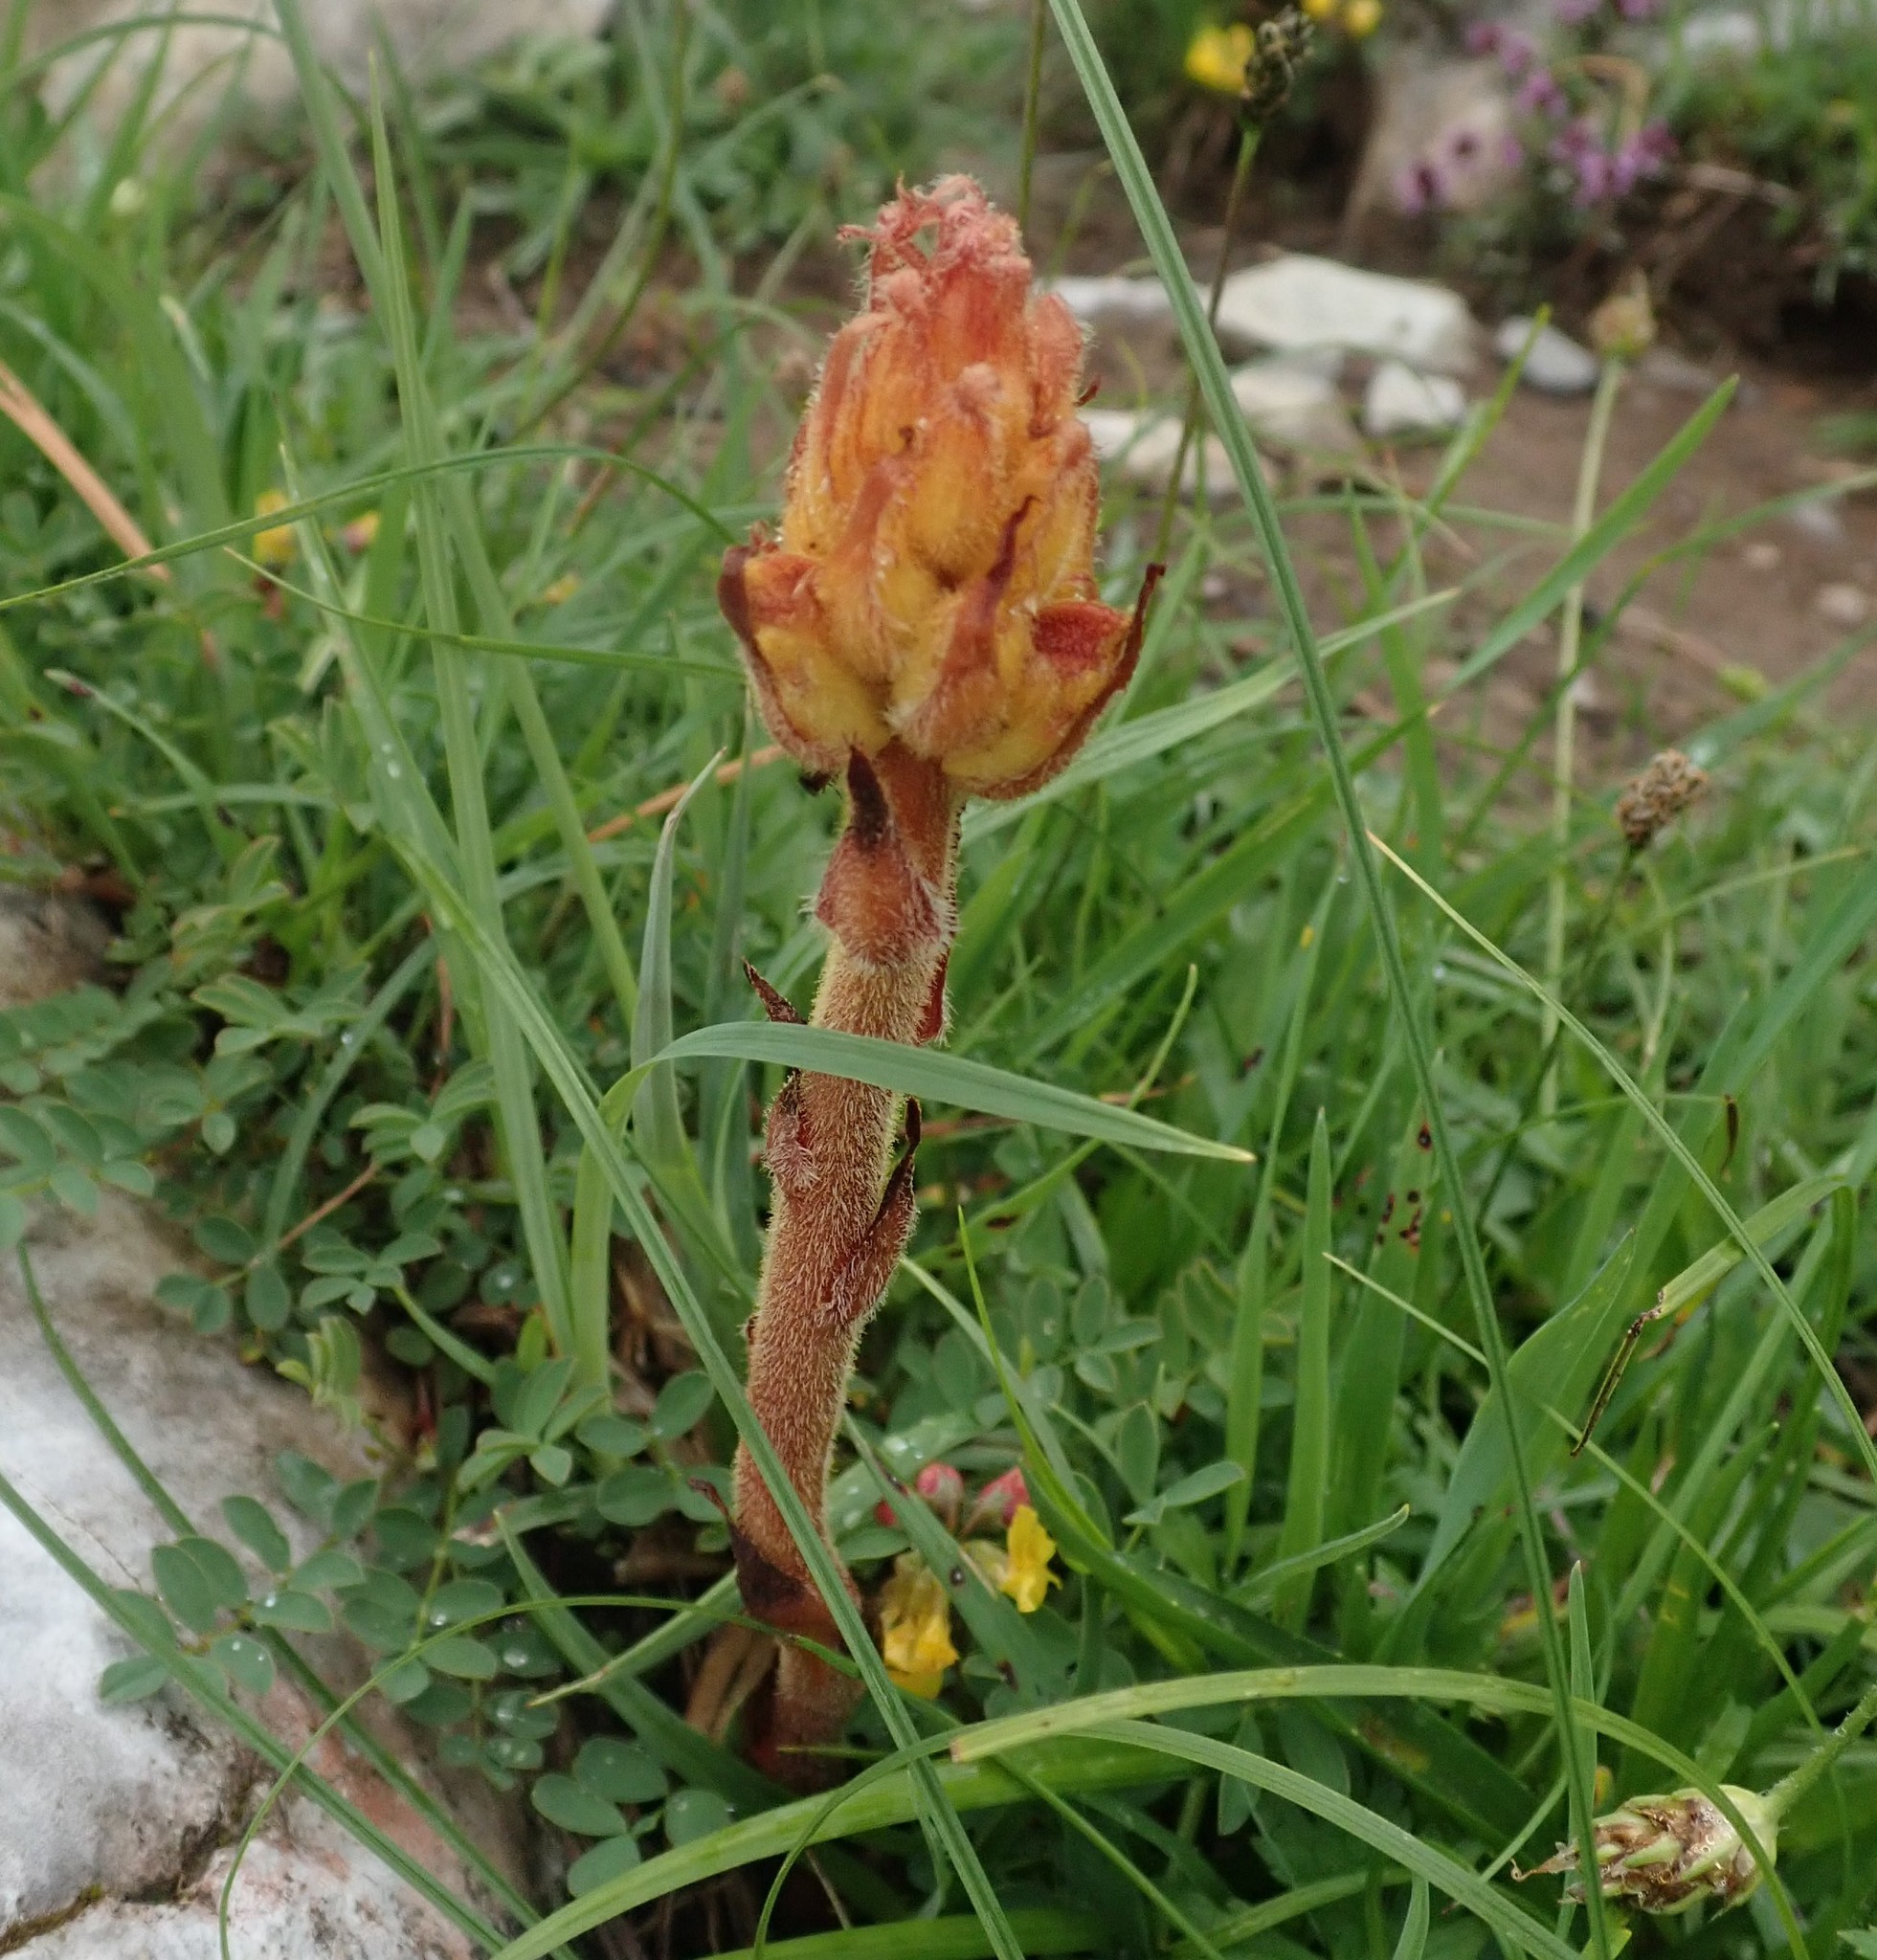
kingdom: Plantae
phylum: Tracheophyta
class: Magnoliopsida
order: Lamiales
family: Orobanchaceae
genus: Orobanche
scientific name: Orobanche gracilis
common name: Slender broomrape
